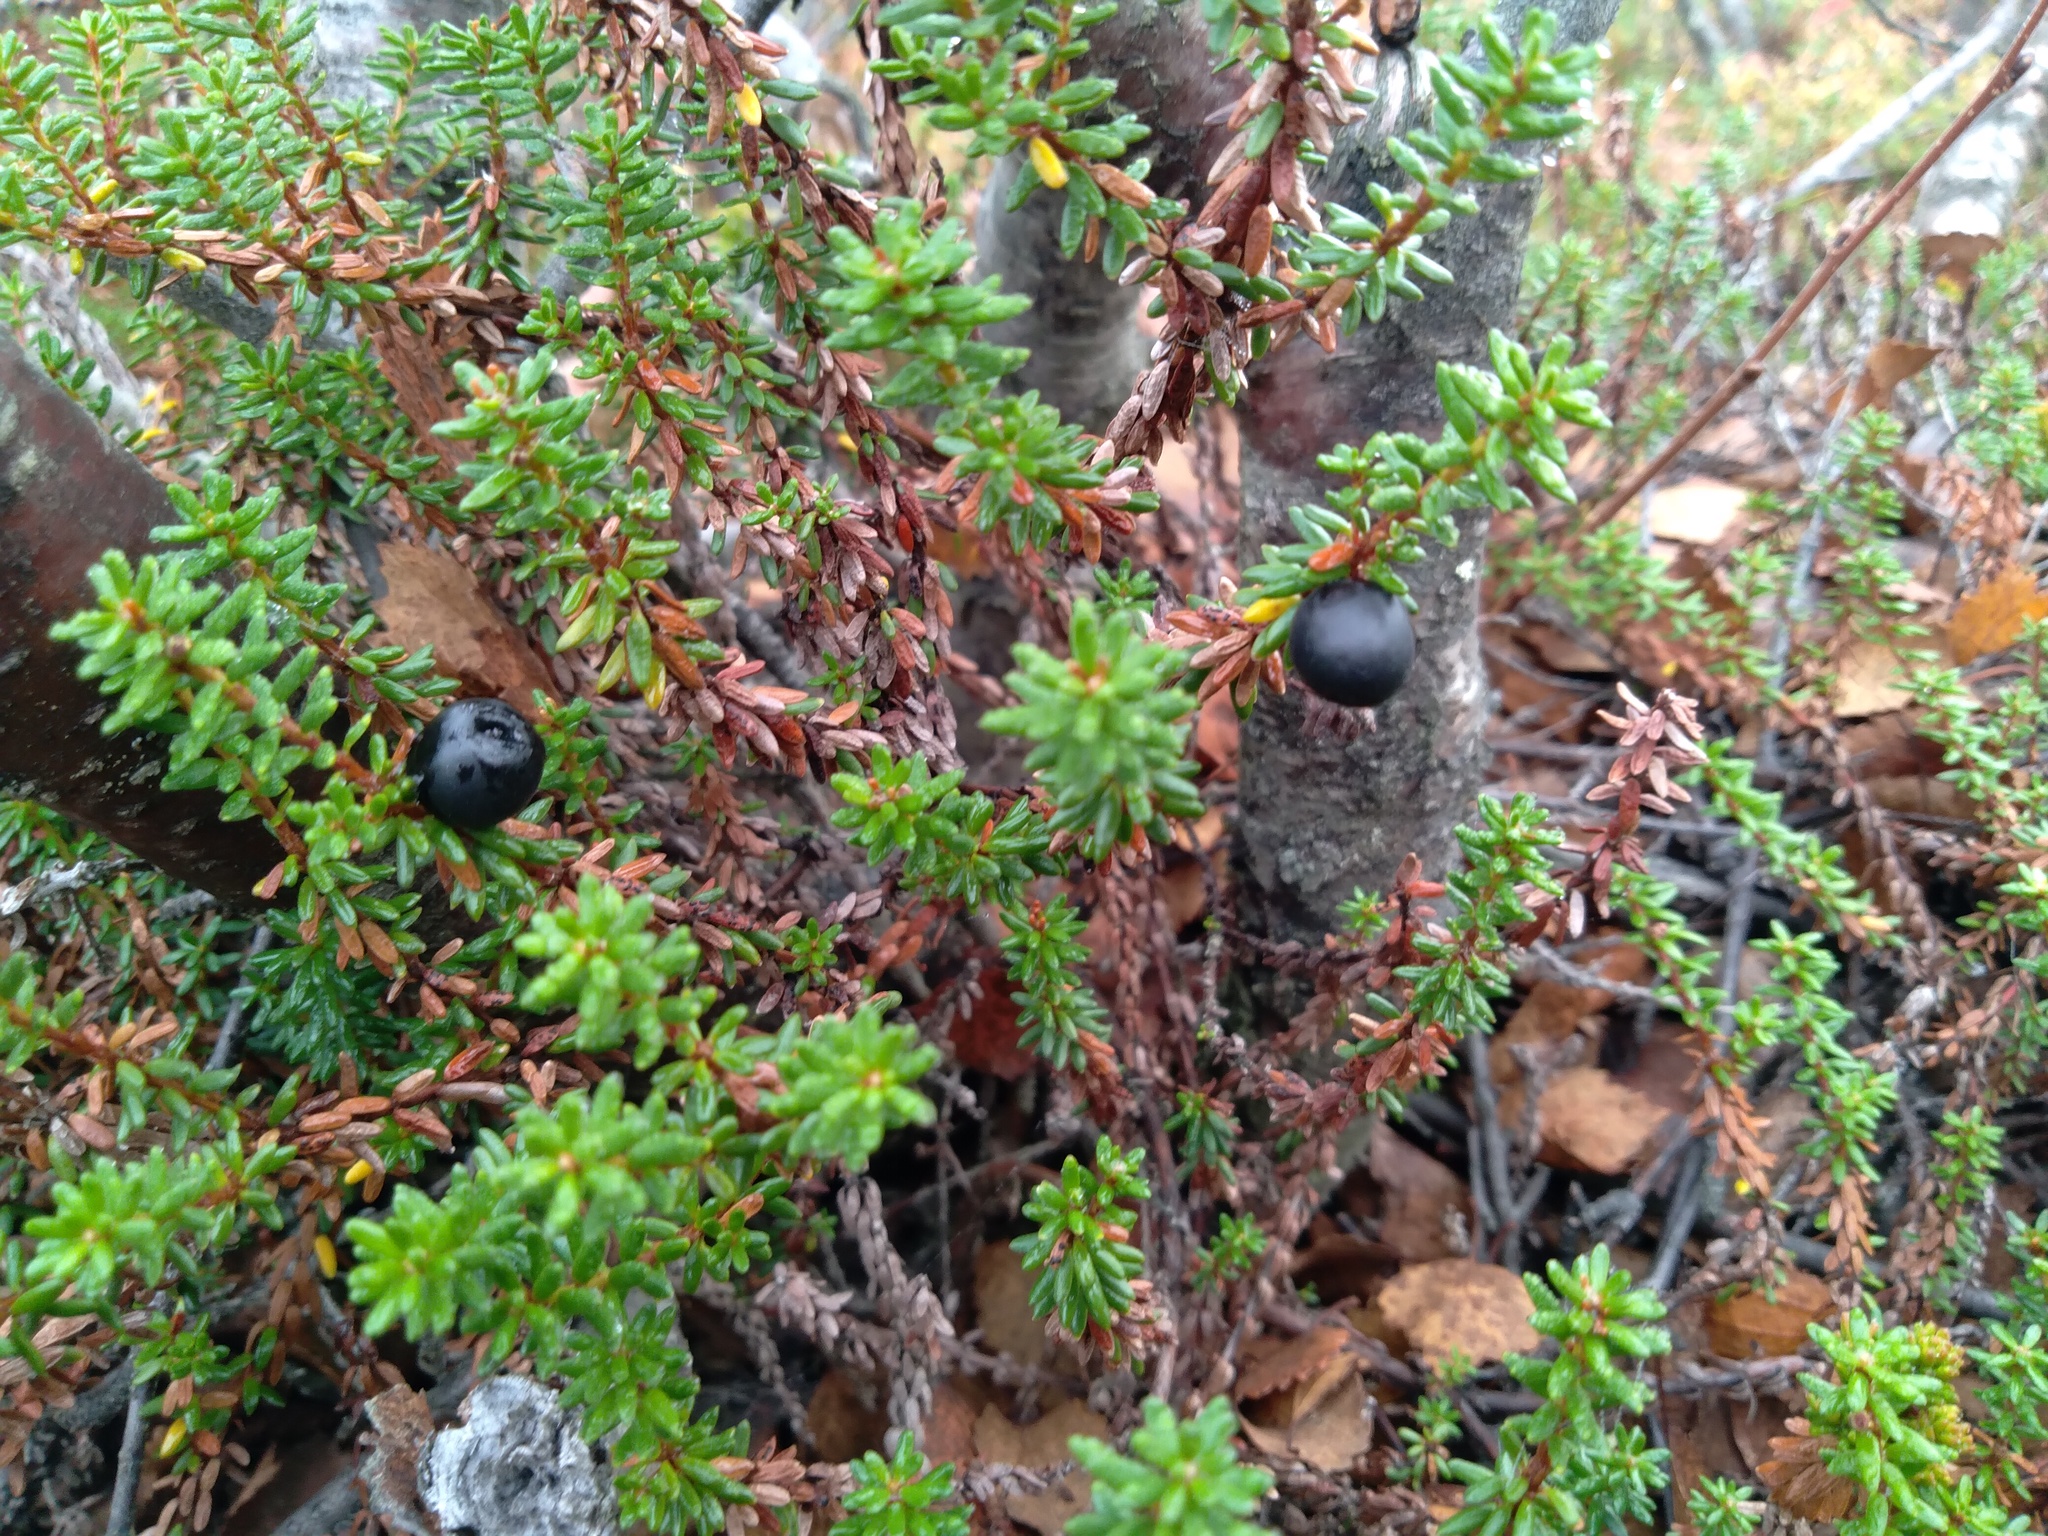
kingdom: Plantae
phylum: Tracheophyta
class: Magnoliopsida
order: Ericales
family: Ericaceae
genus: Empetrum
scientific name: Empetrum nigrum
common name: Black crowberry
